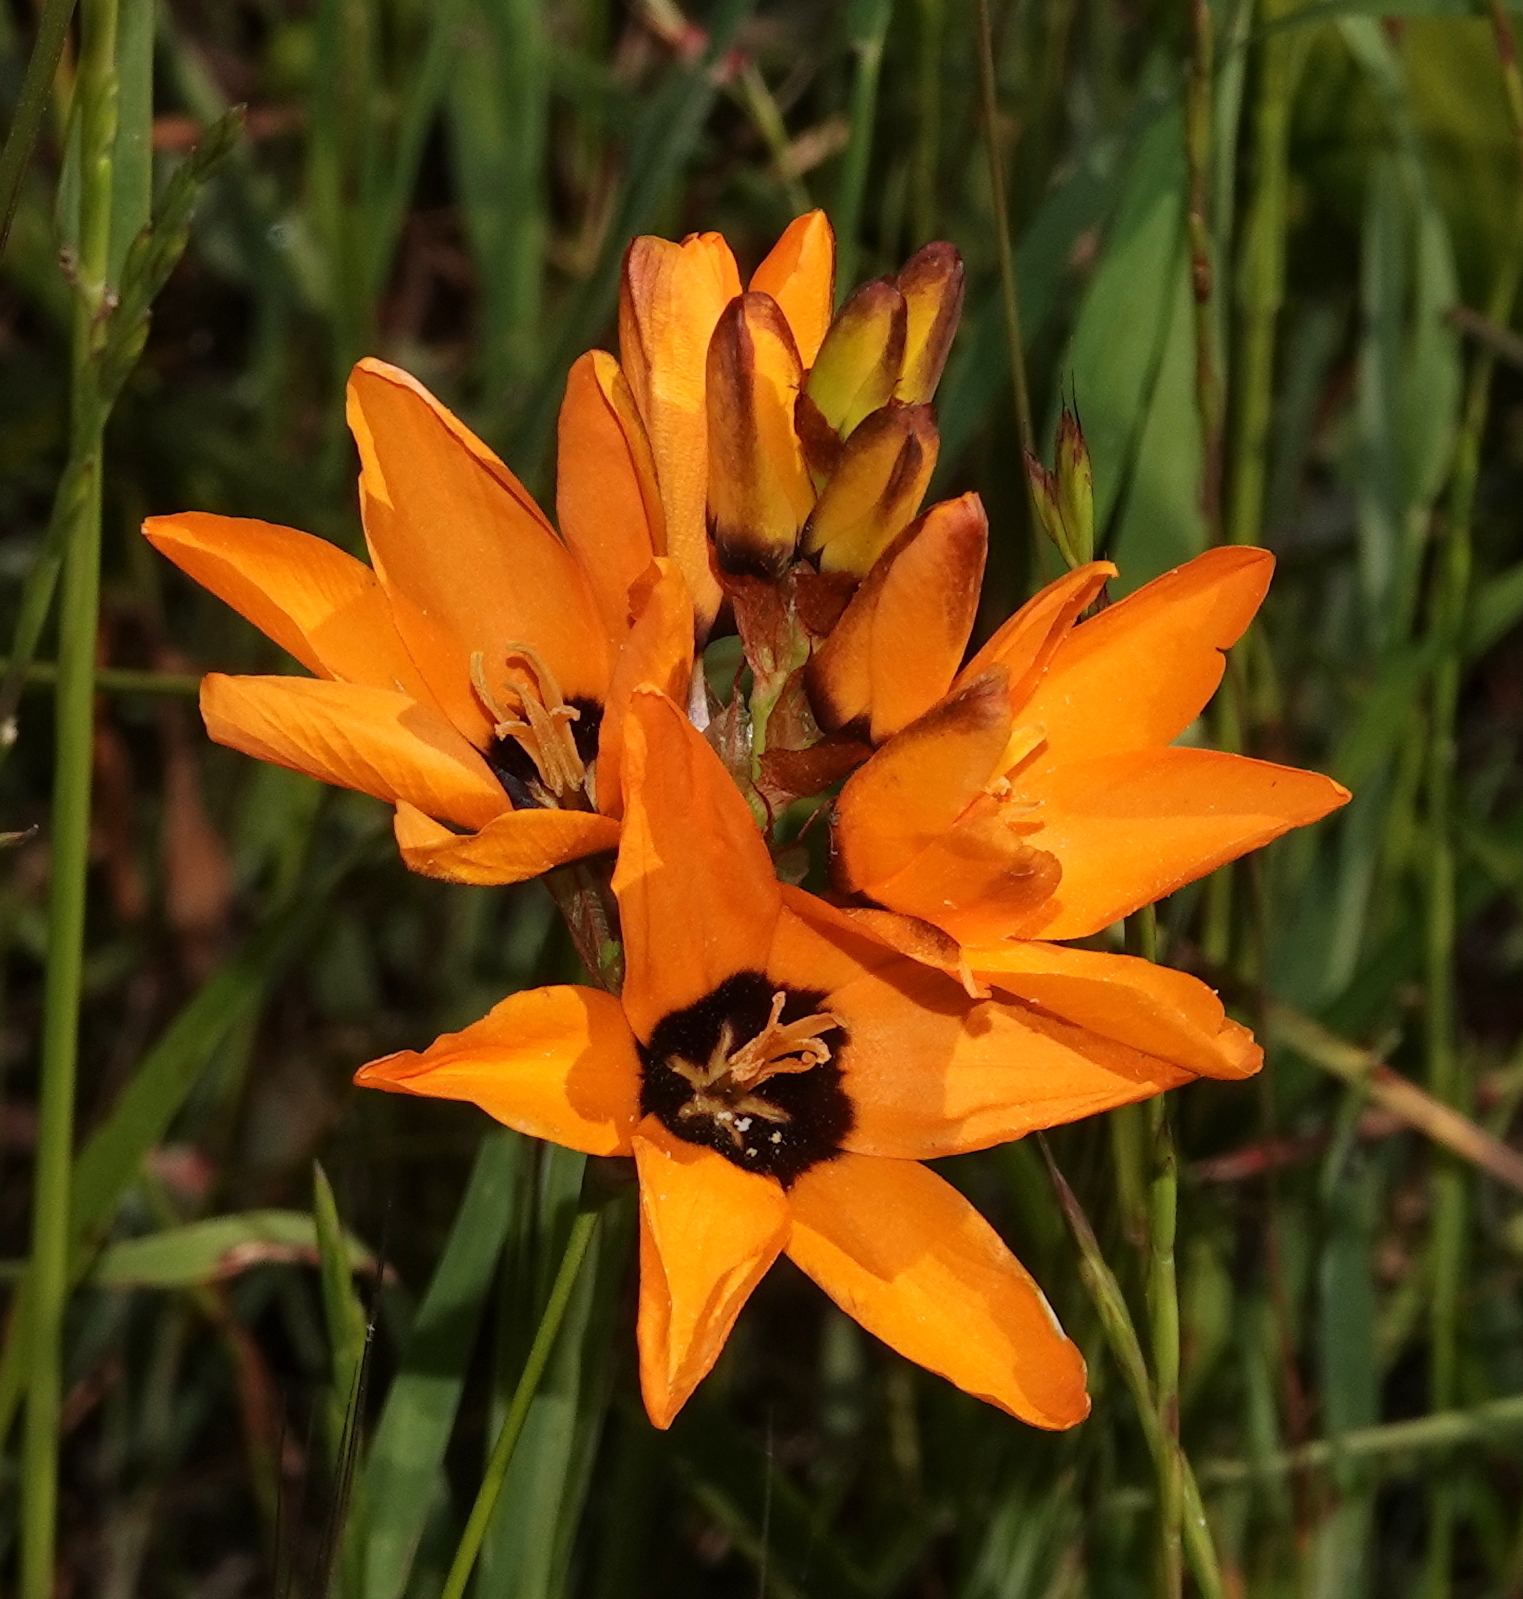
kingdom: Plantae
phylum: Tracheophyta
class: Liliopsida
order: Asparagales
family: Iridaceae
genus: Ixia
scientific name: Ixia maculata
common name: Spotted african cornlily
